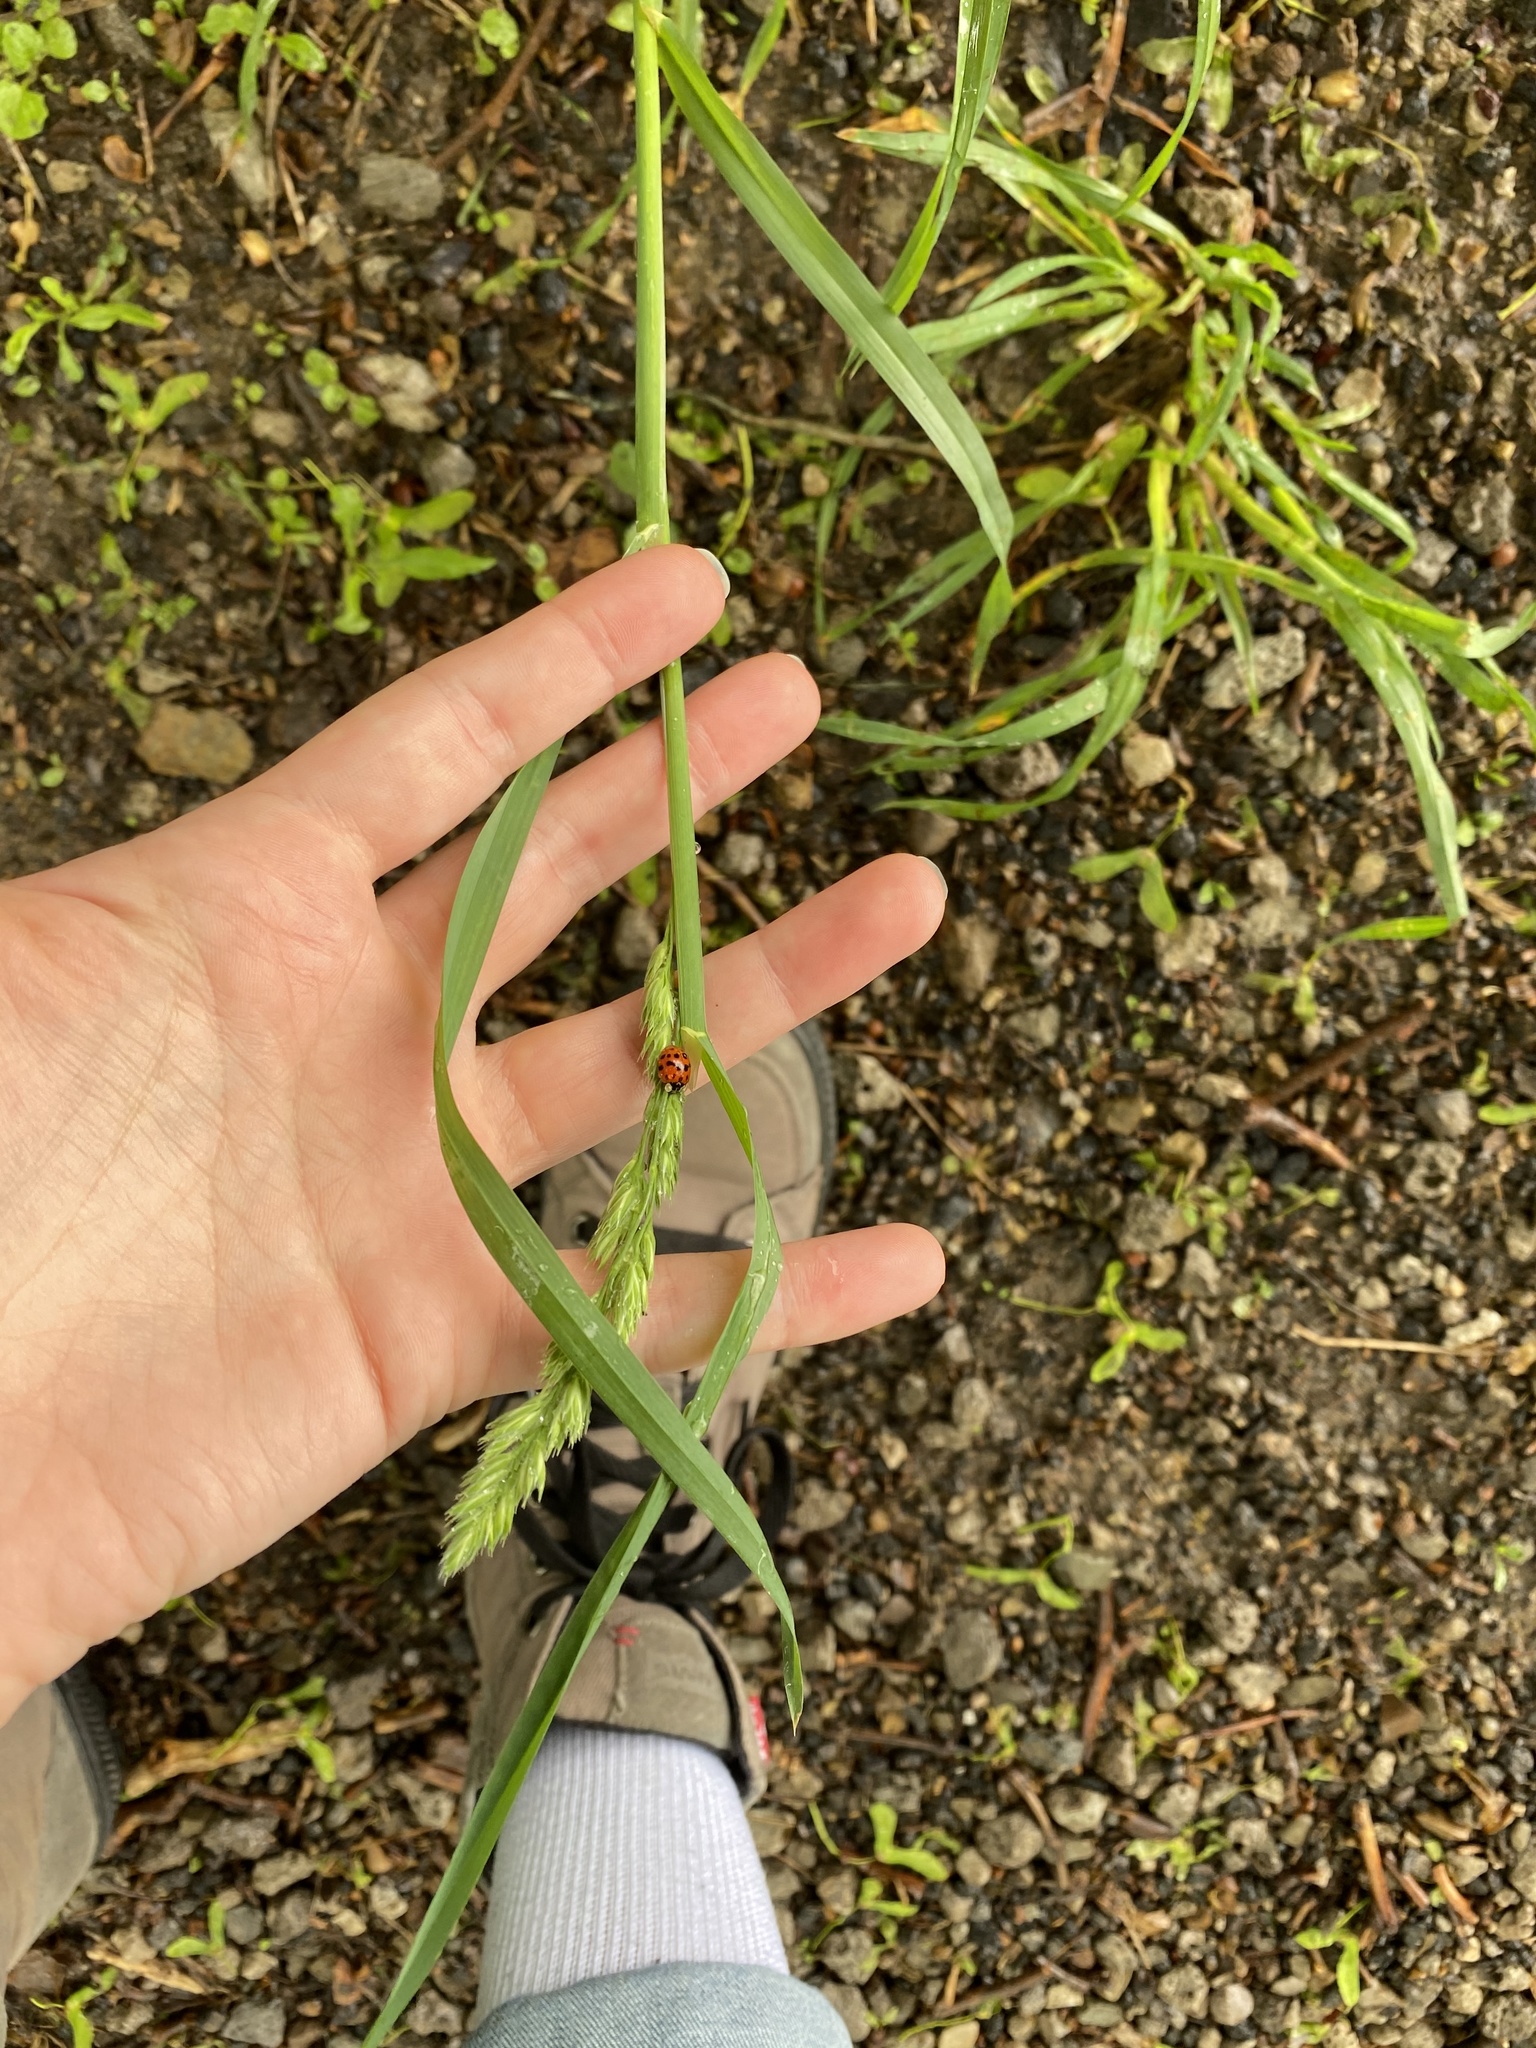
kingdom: Plantae
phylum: Tracheophyta
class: Liliopsida
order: Poales
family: Poaceae
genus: Dactylis
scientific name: Dactylis glomerata
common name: Orchardgrass
